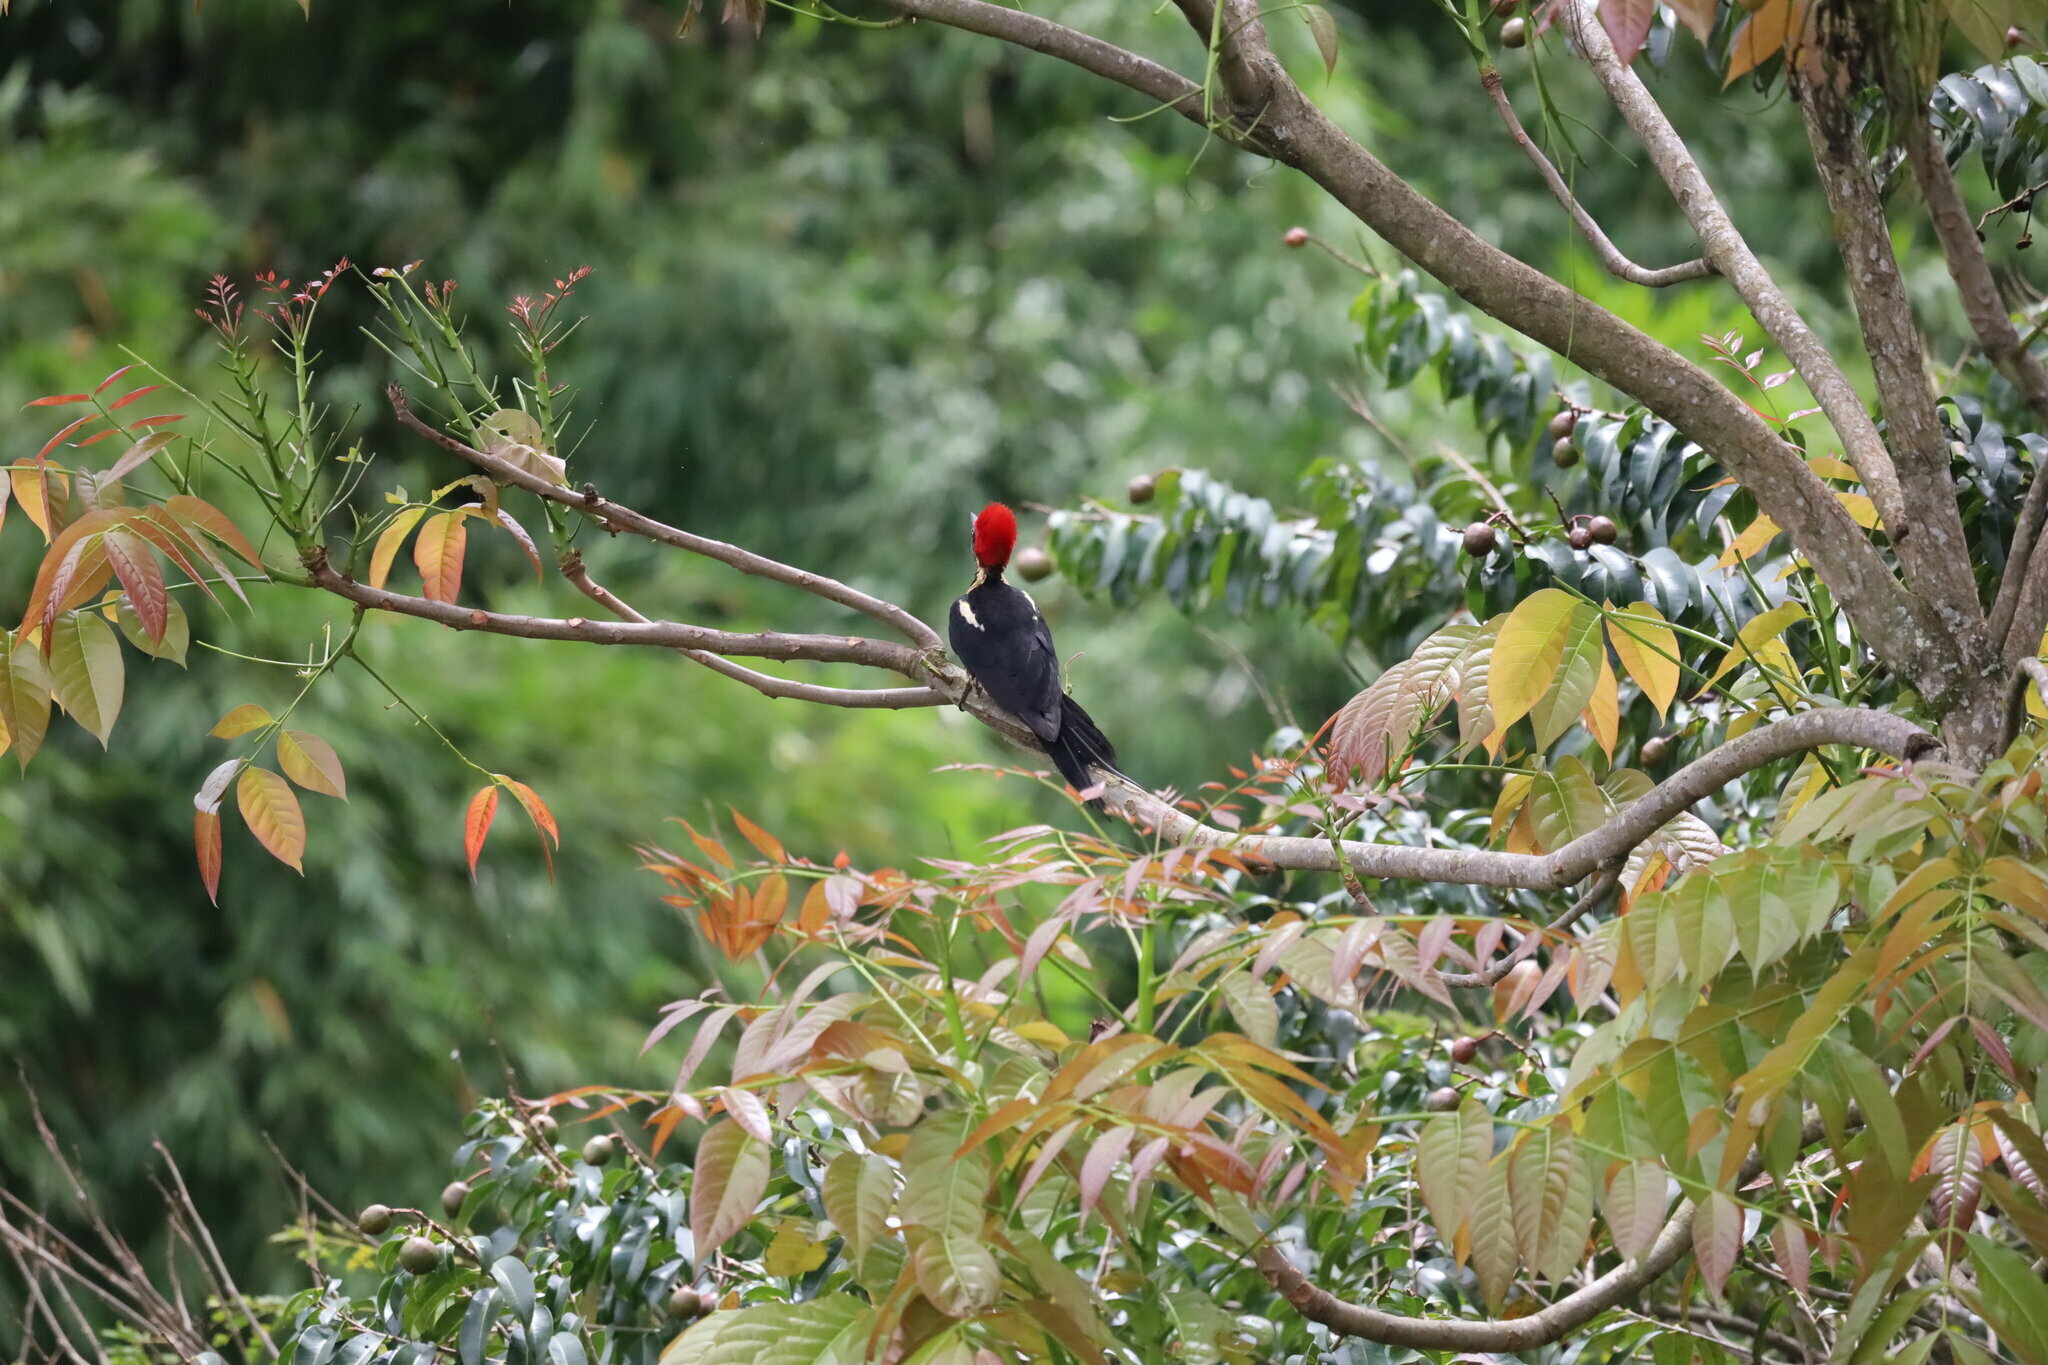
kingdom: Animalia
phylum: Chordata
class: Aves
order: Piciformes
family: Picidae
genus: Dryocopus
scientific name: Dryocopus lineatus
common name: Lineated woodpecker
